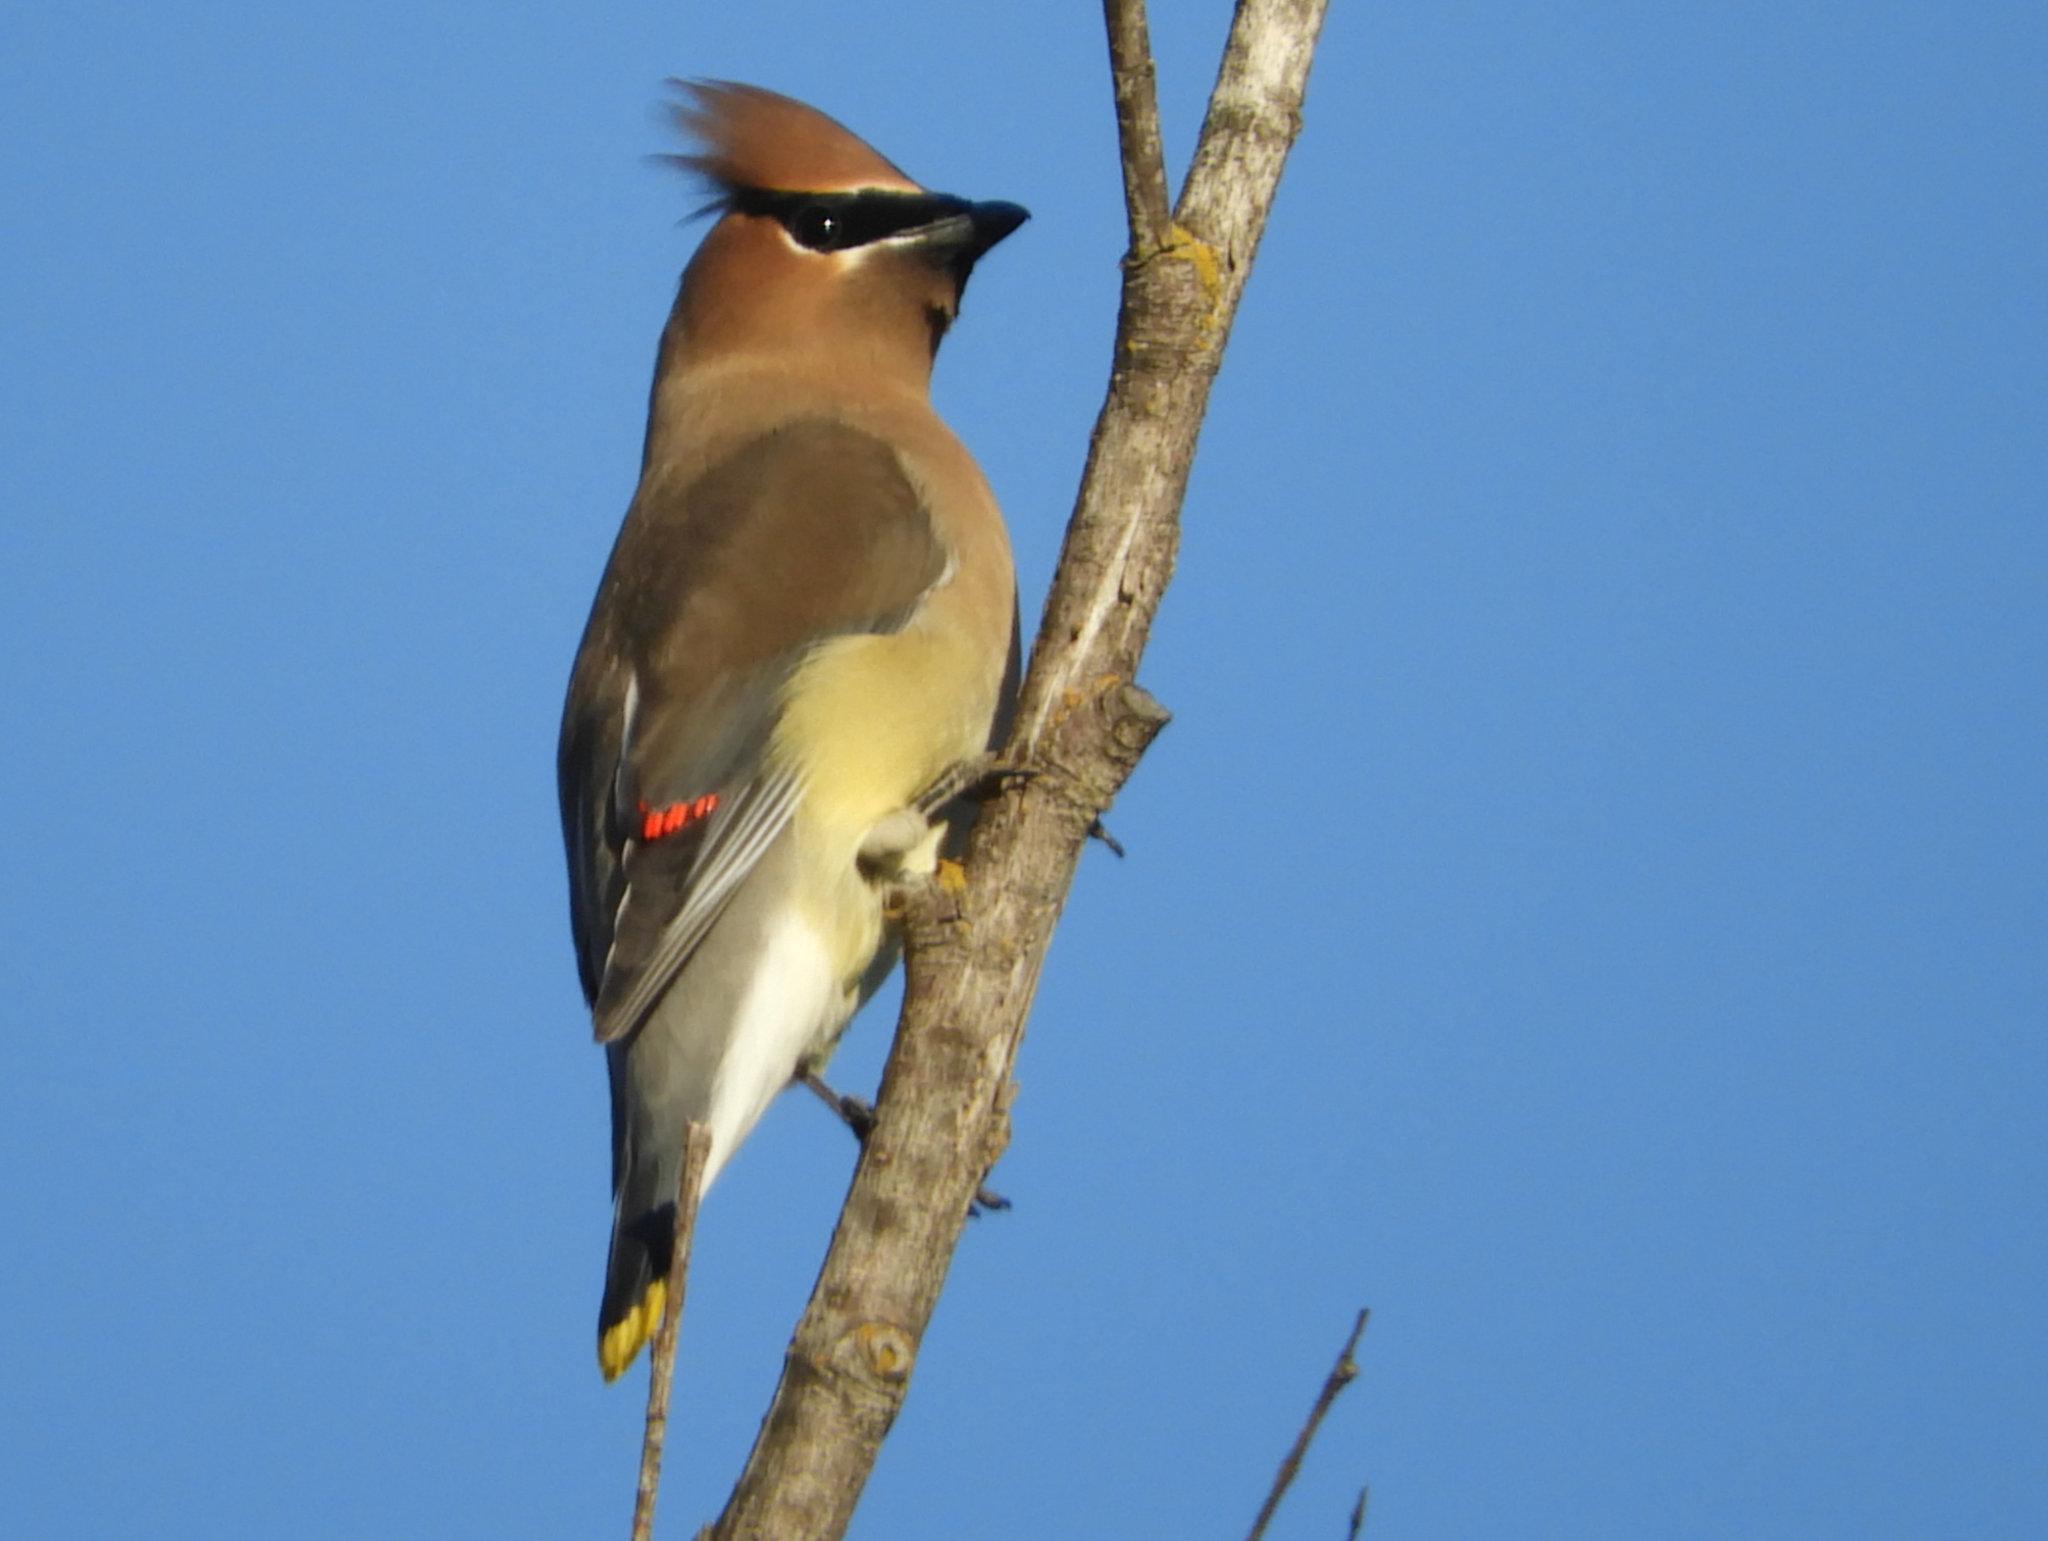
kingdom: Animalia
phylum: Chordata
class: Aves
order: Passeriformes
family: Bombycillidae
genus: Bombycilla
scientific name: Bombycilla cedrorum
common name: Cedar waxwing
